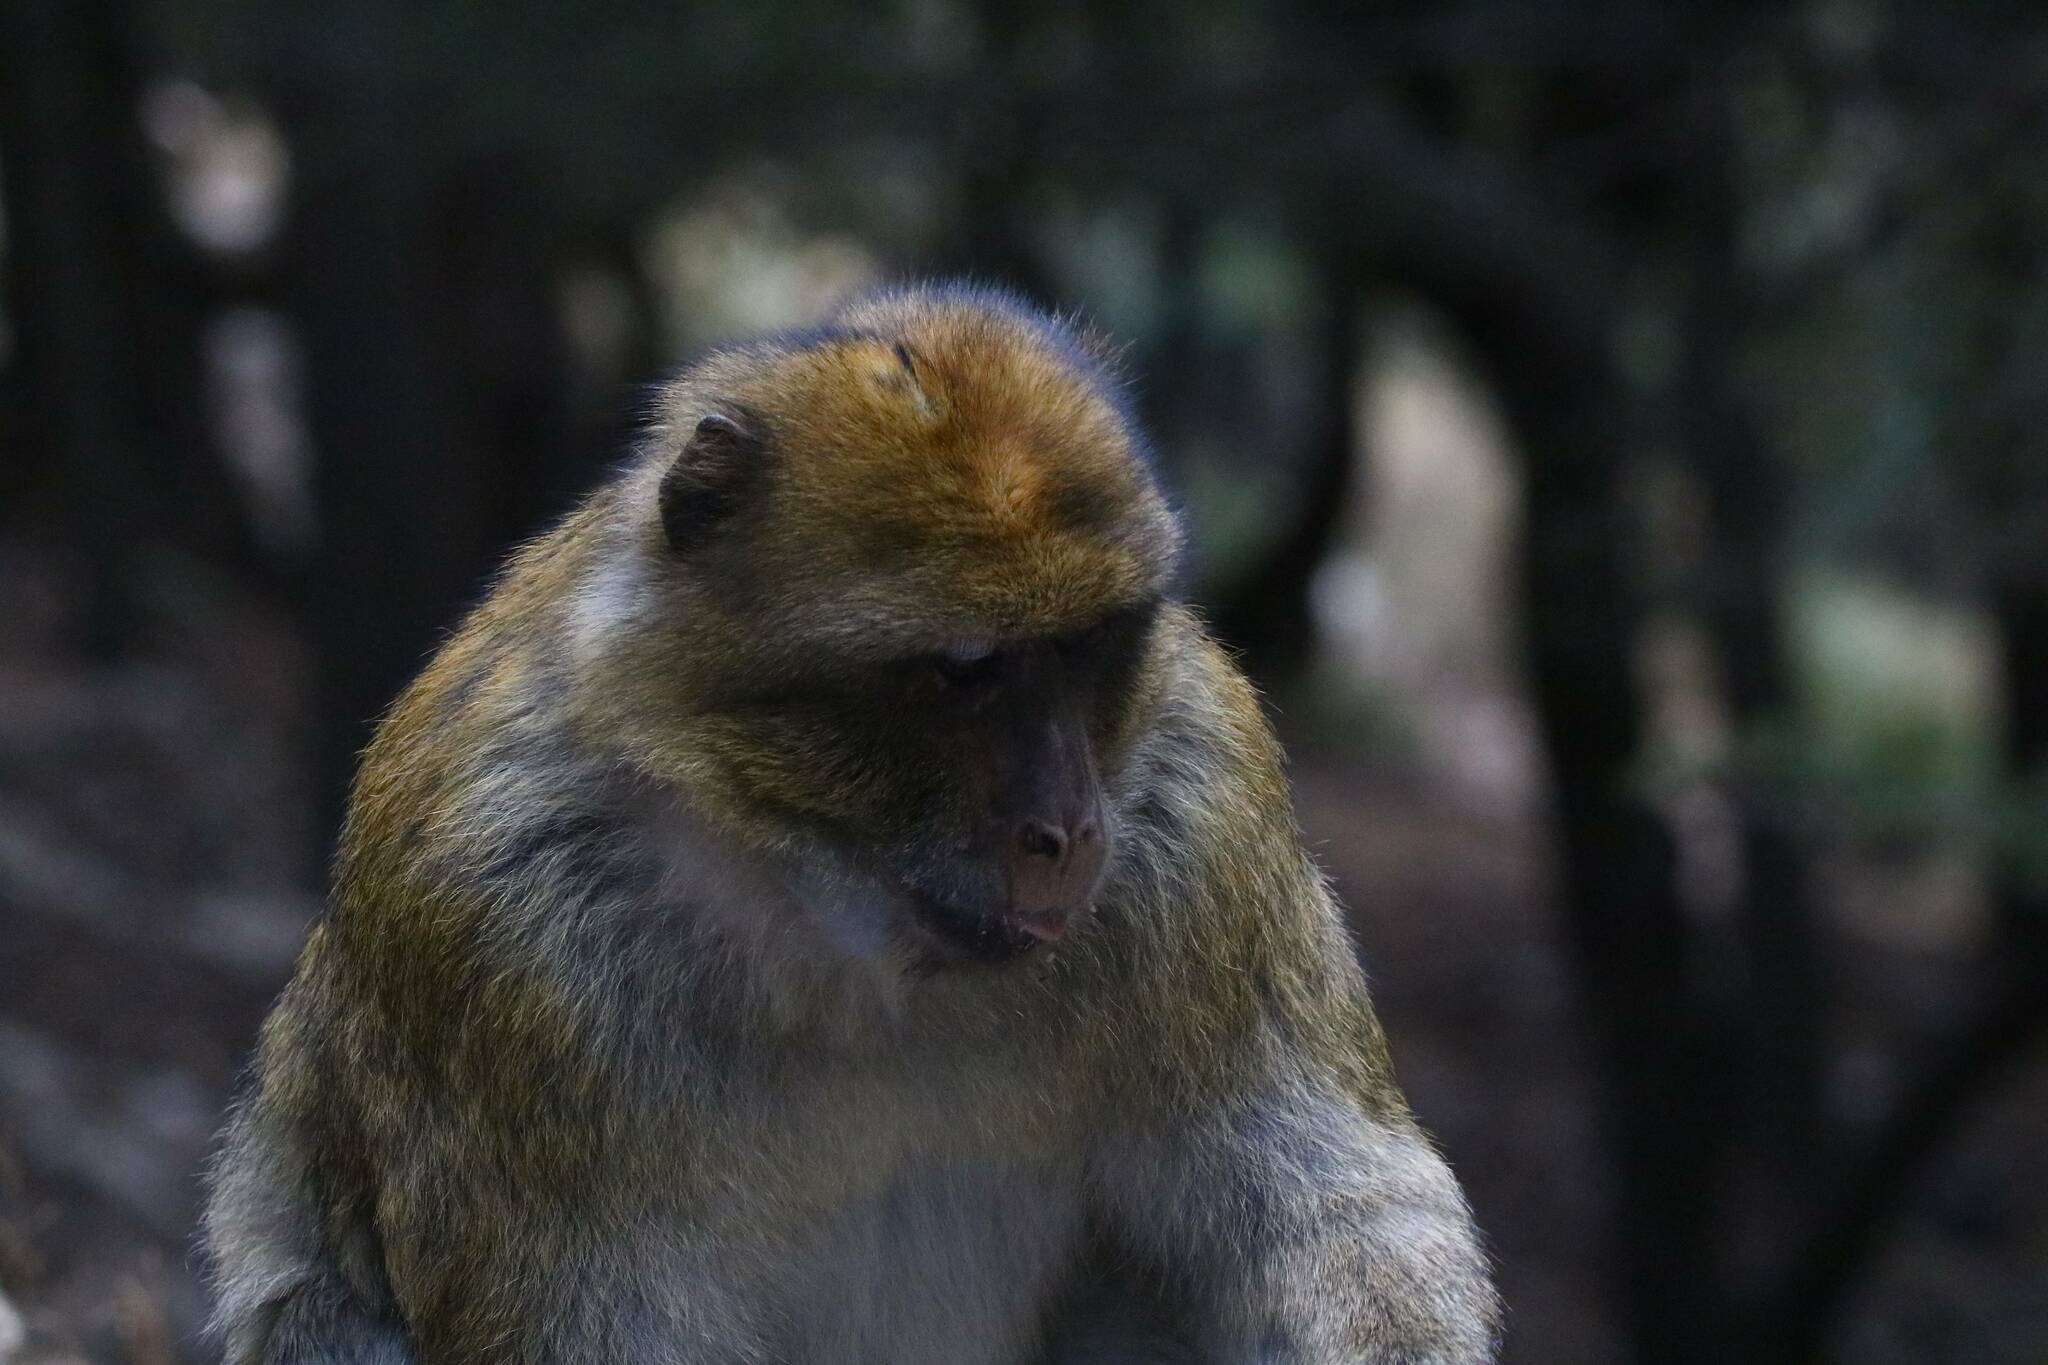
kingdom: Animalia
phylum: Chordata
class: Mammalia
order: Primates
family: Cercopithecidae
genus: Macaca
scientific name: Macaca sylvanus
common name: Barbary macaque
